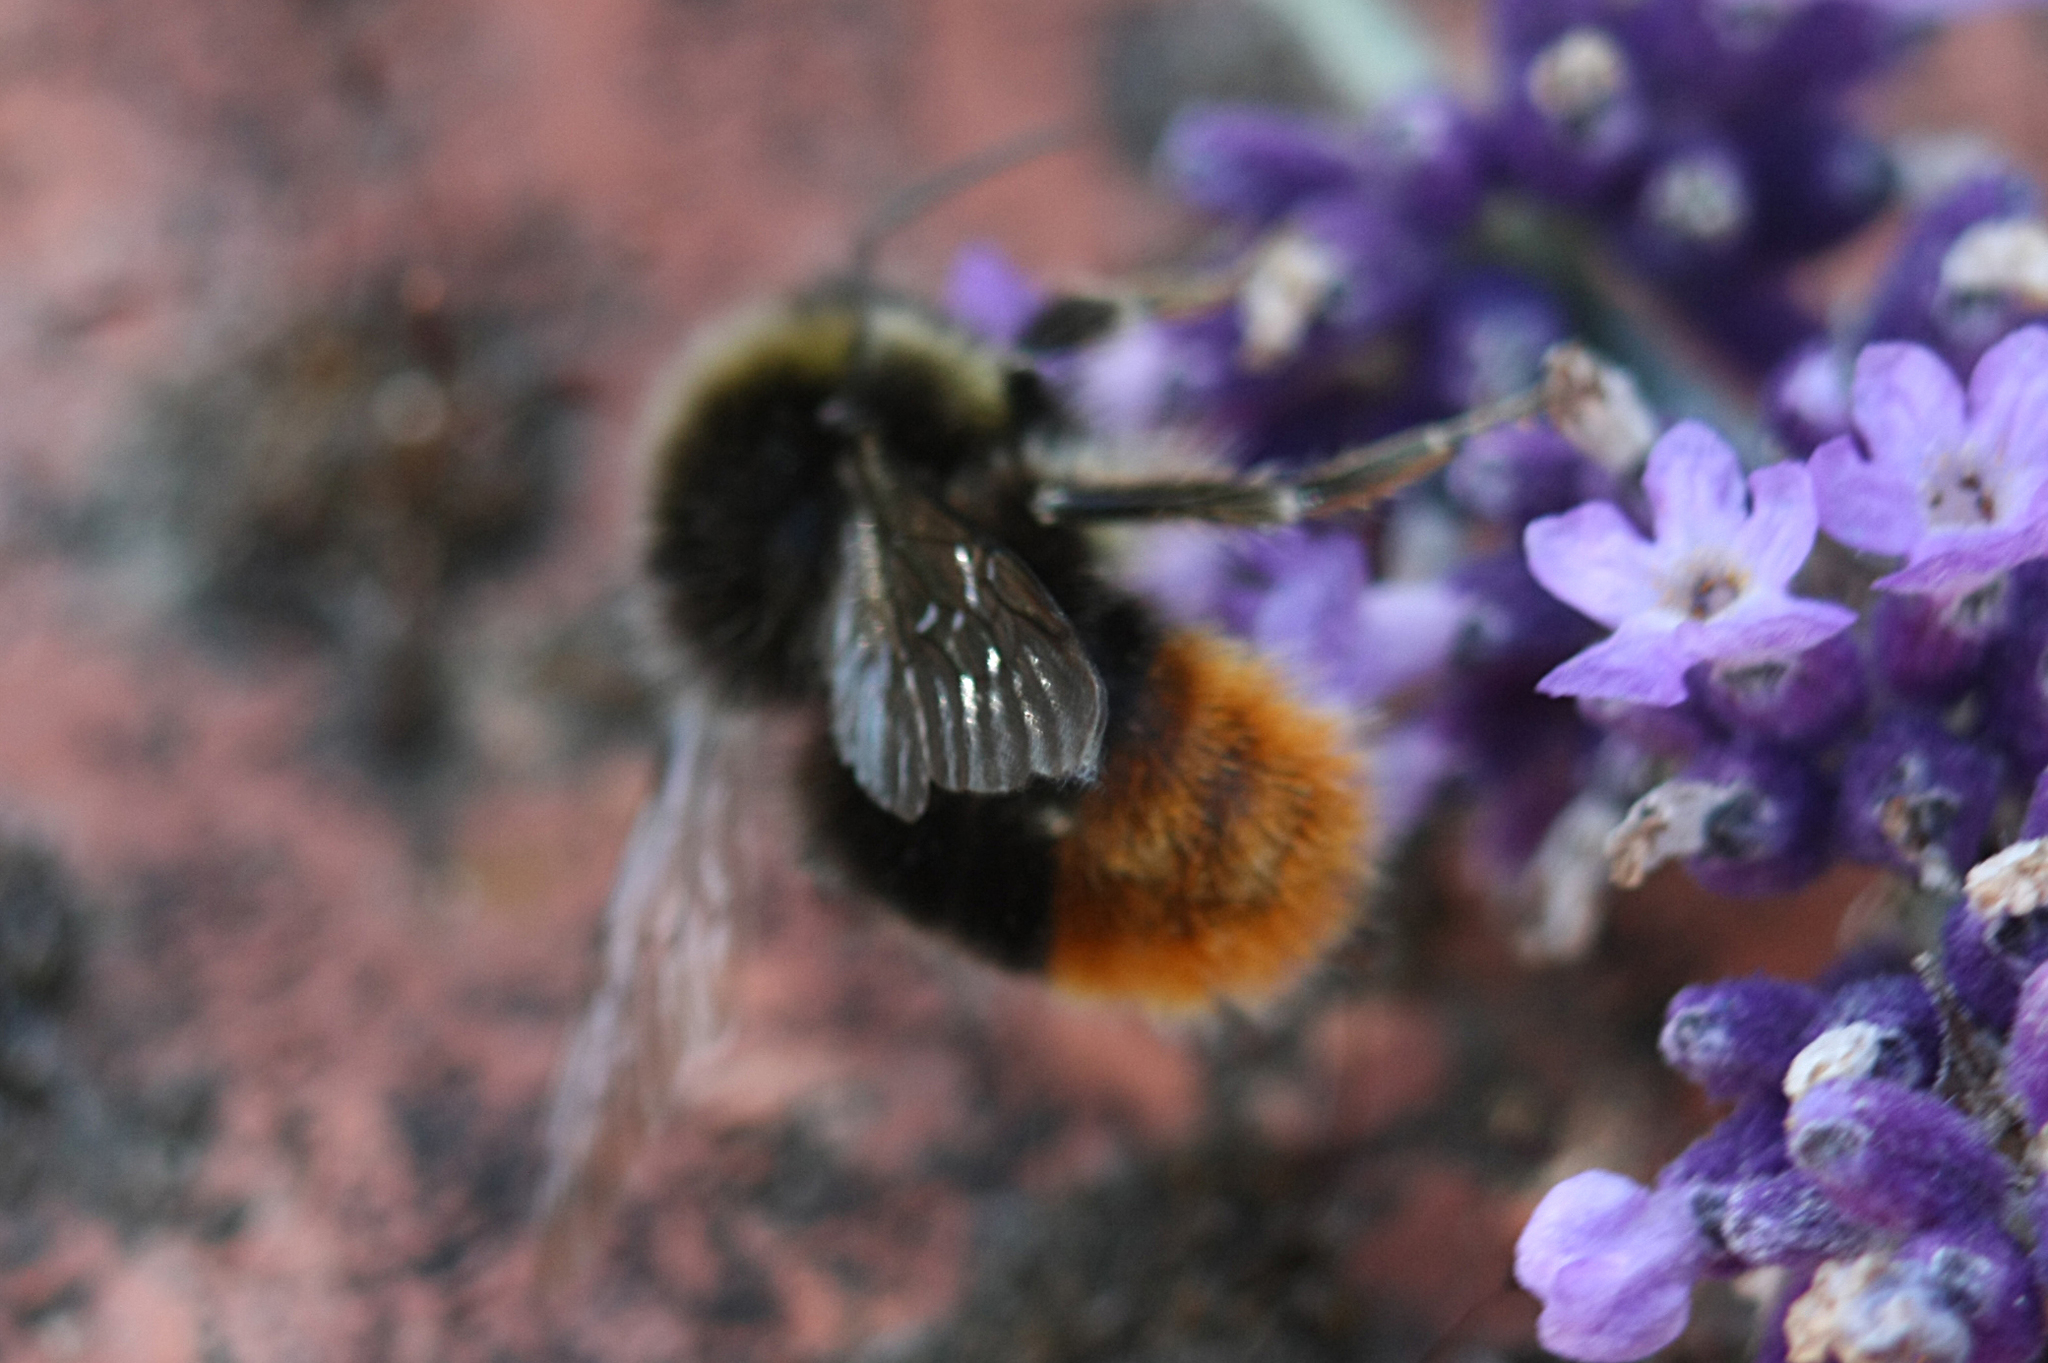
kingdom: Animalia
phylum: Arthropoda
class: Insecta
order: Hymenoptera
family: Apidae
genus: Bombus
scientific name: Bombus lapidarius
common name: Large red-tailed humble-bee
